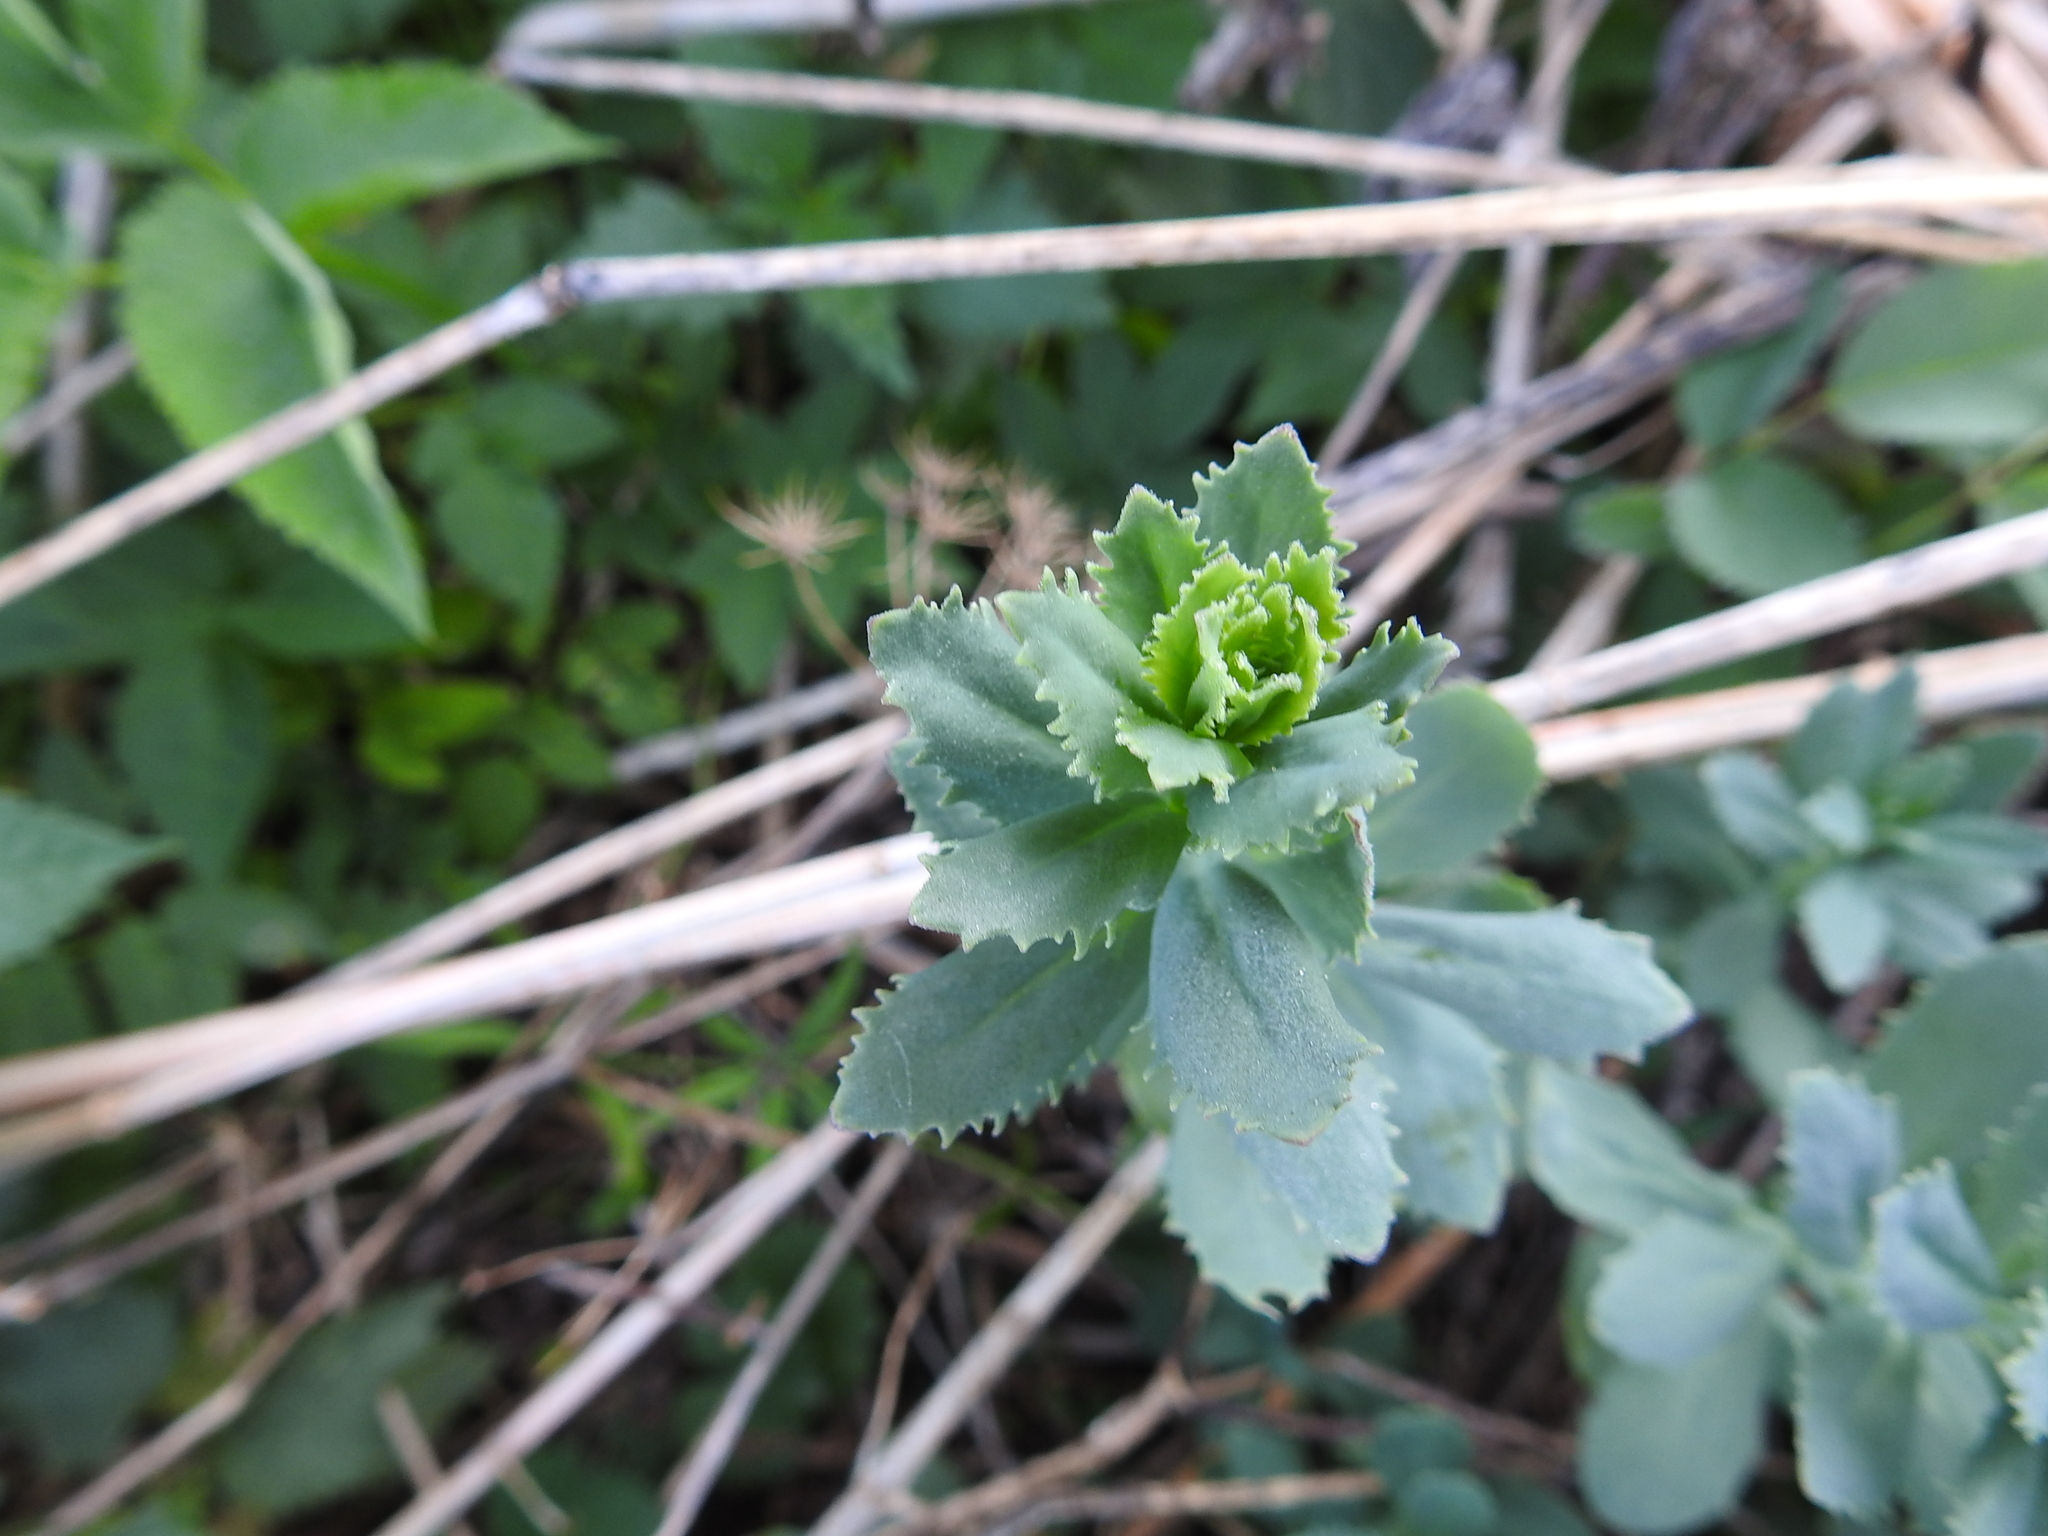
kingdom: Plantae
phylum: Tracheophyta
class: Magnoliopsida
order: Saxifragales
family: Crassulaceae
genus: Hylotelephium
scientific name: Hylotelephium telephium
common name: Live-forever
